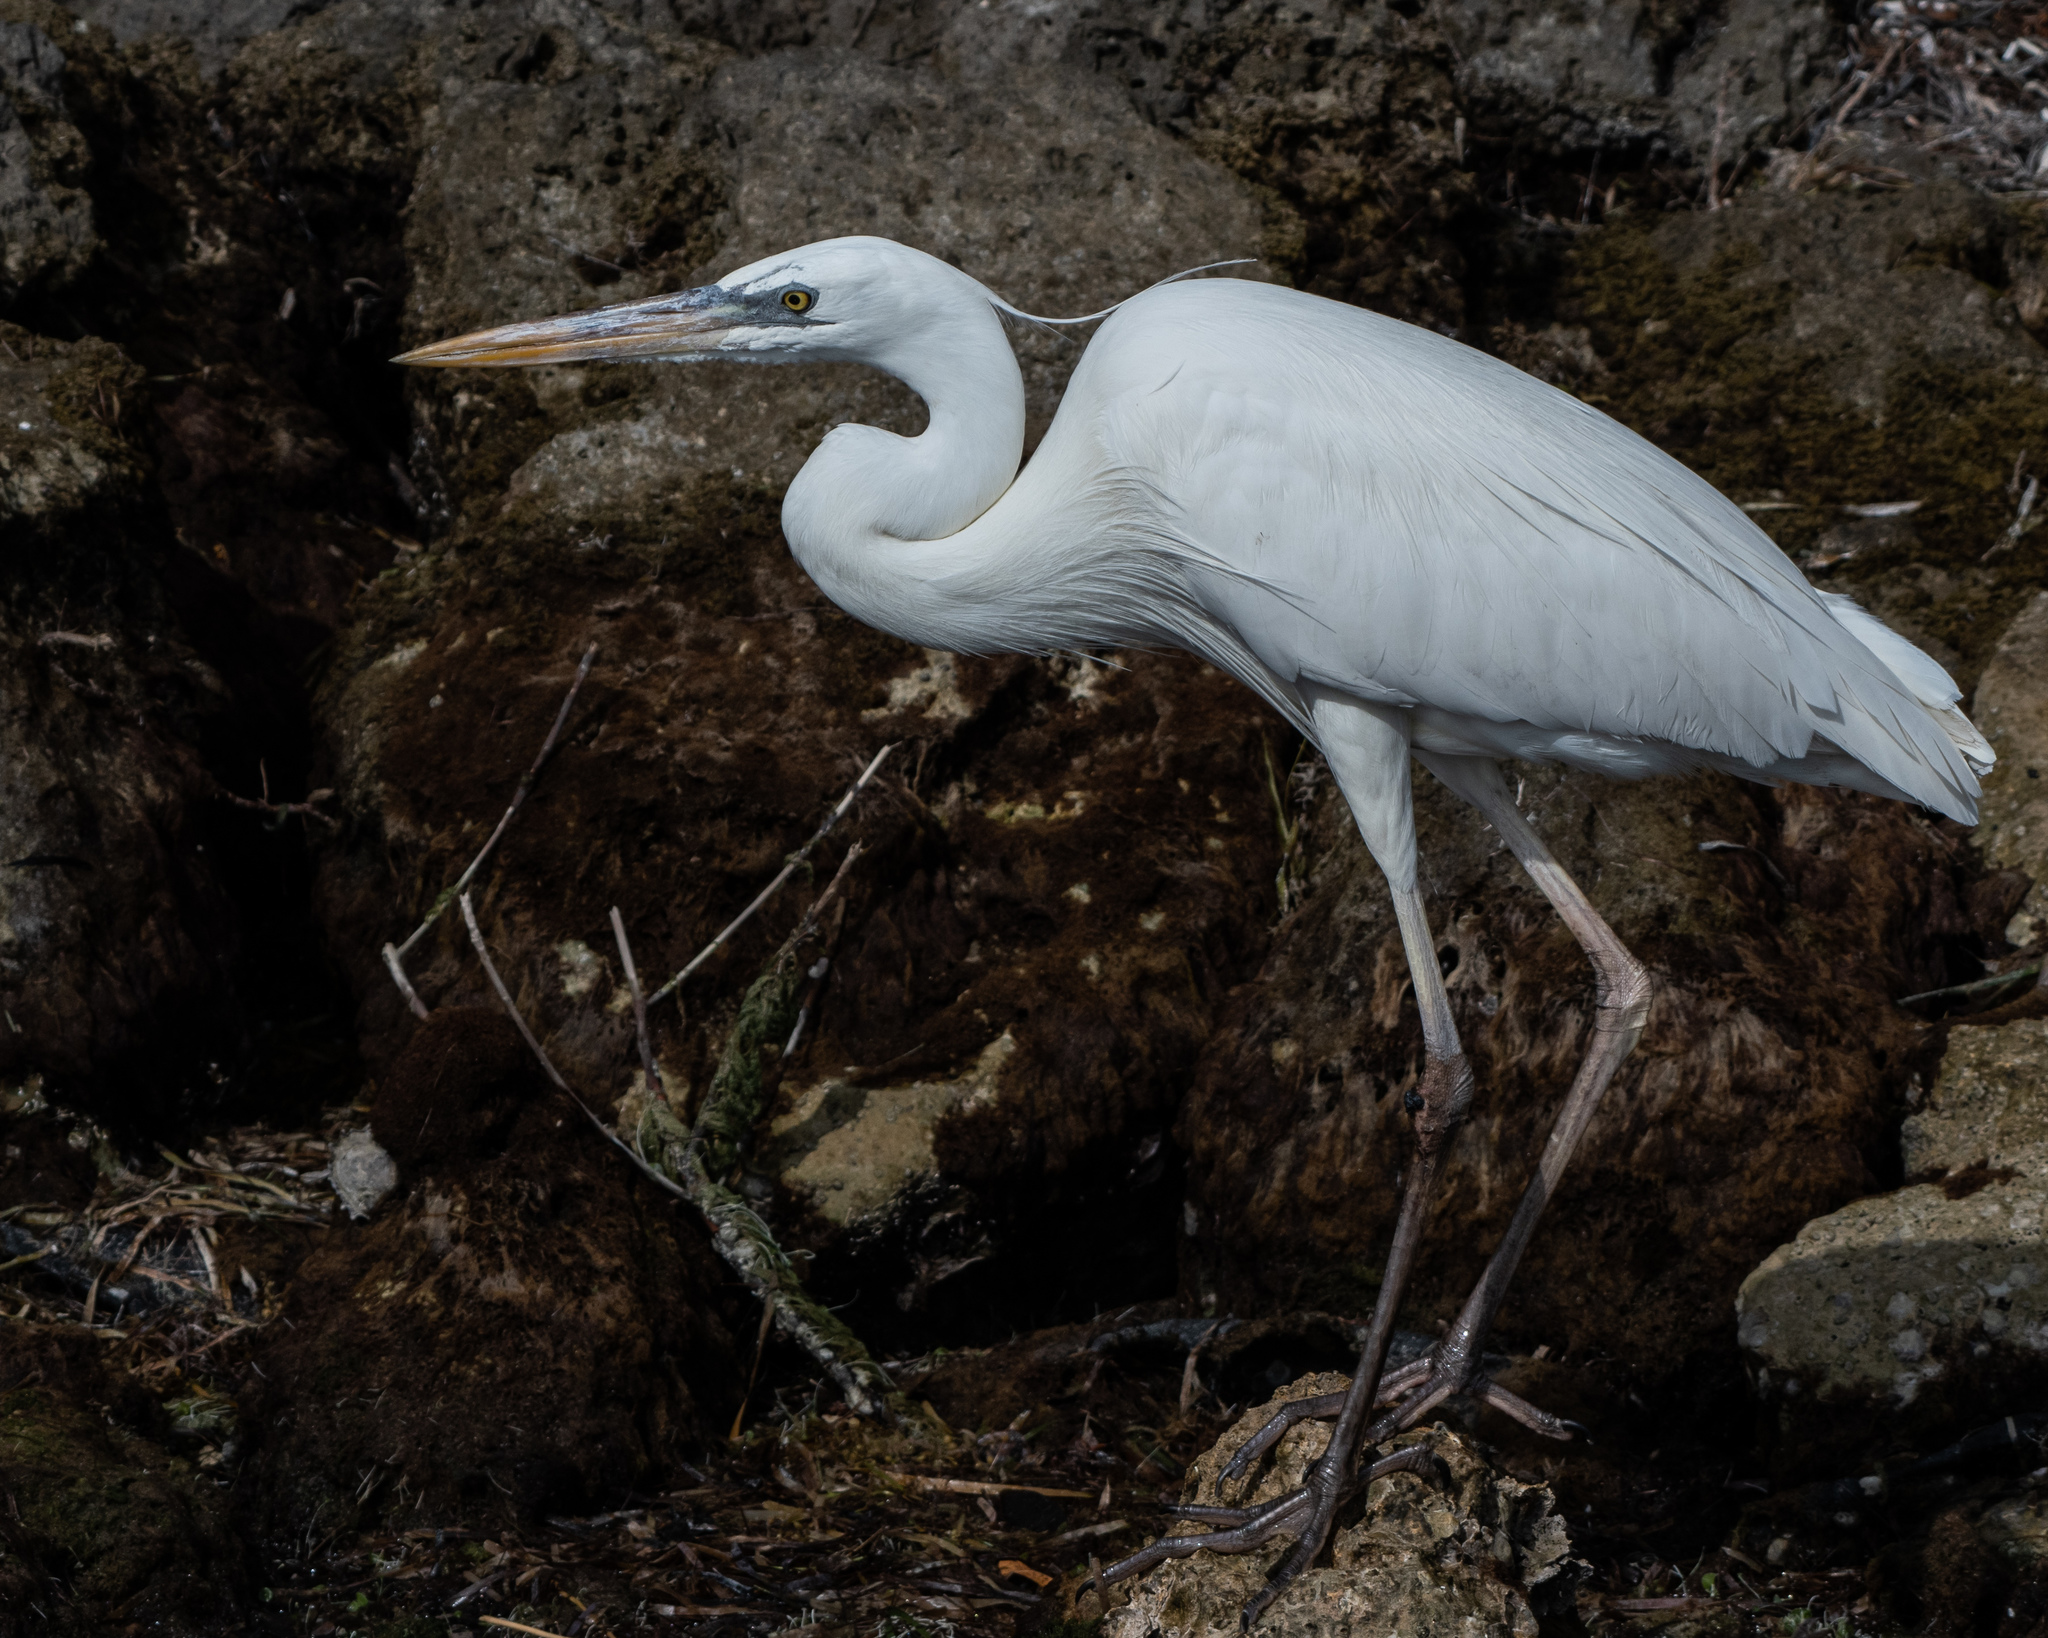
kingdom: Animalia
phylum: Chordata
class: Aves
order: Pelecaniformes
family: Ardeidae
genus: Ardea
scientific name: Ardea herodias
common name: Great blue heron
